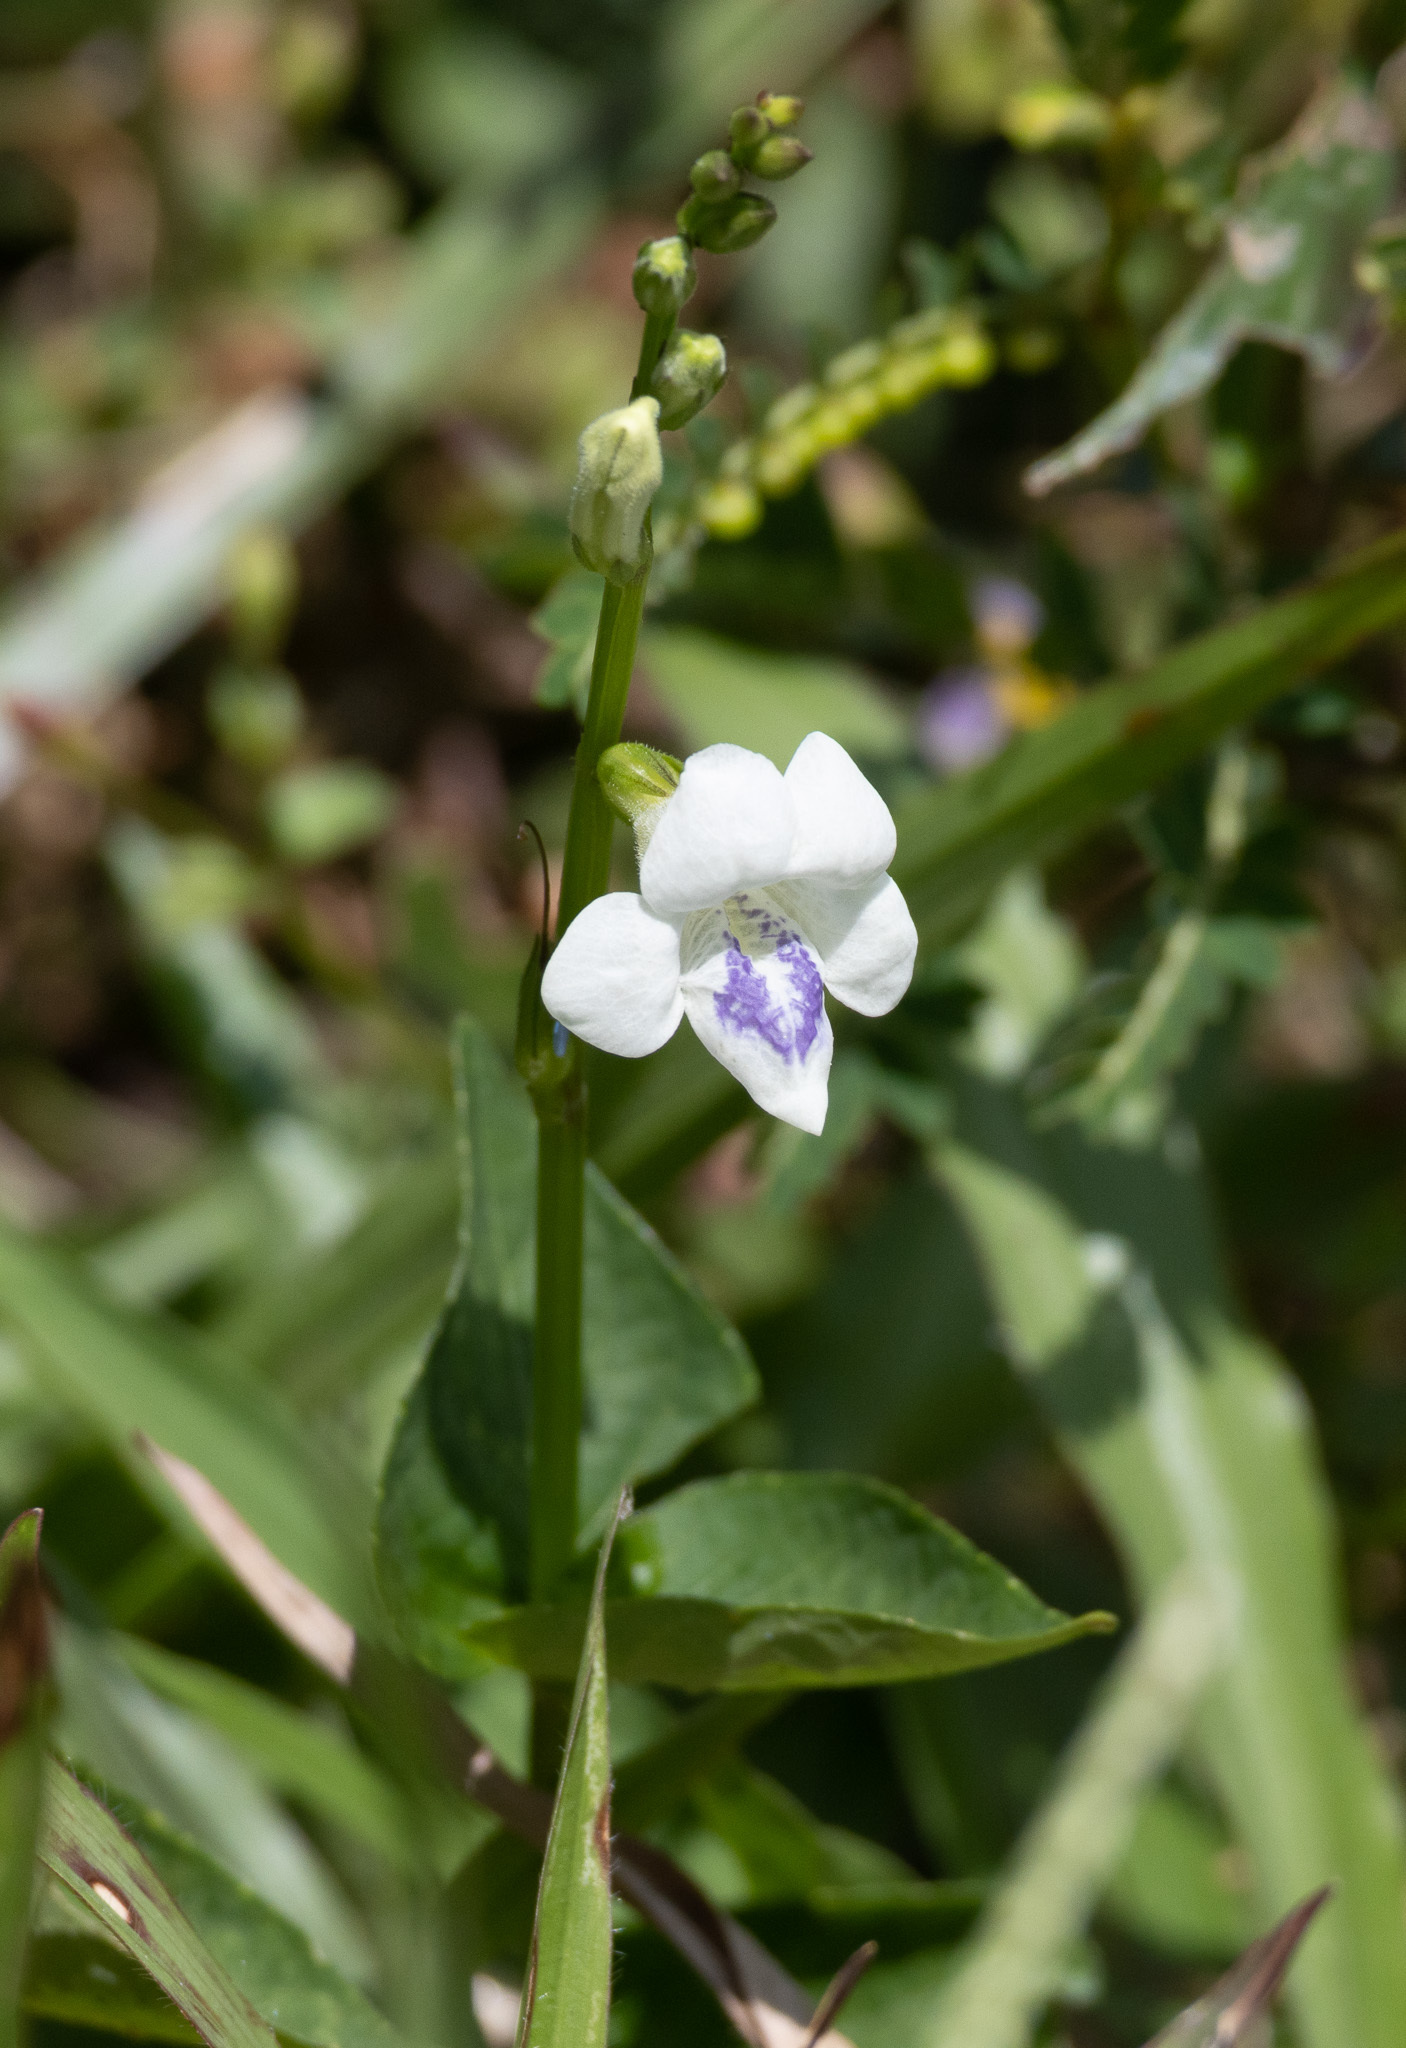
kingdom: Plantae
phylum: Tracheophyta
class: Magnoliopsida
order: Lamiales
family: Acanthaceae
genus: Asystasia
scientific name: Asystasia intrusa
